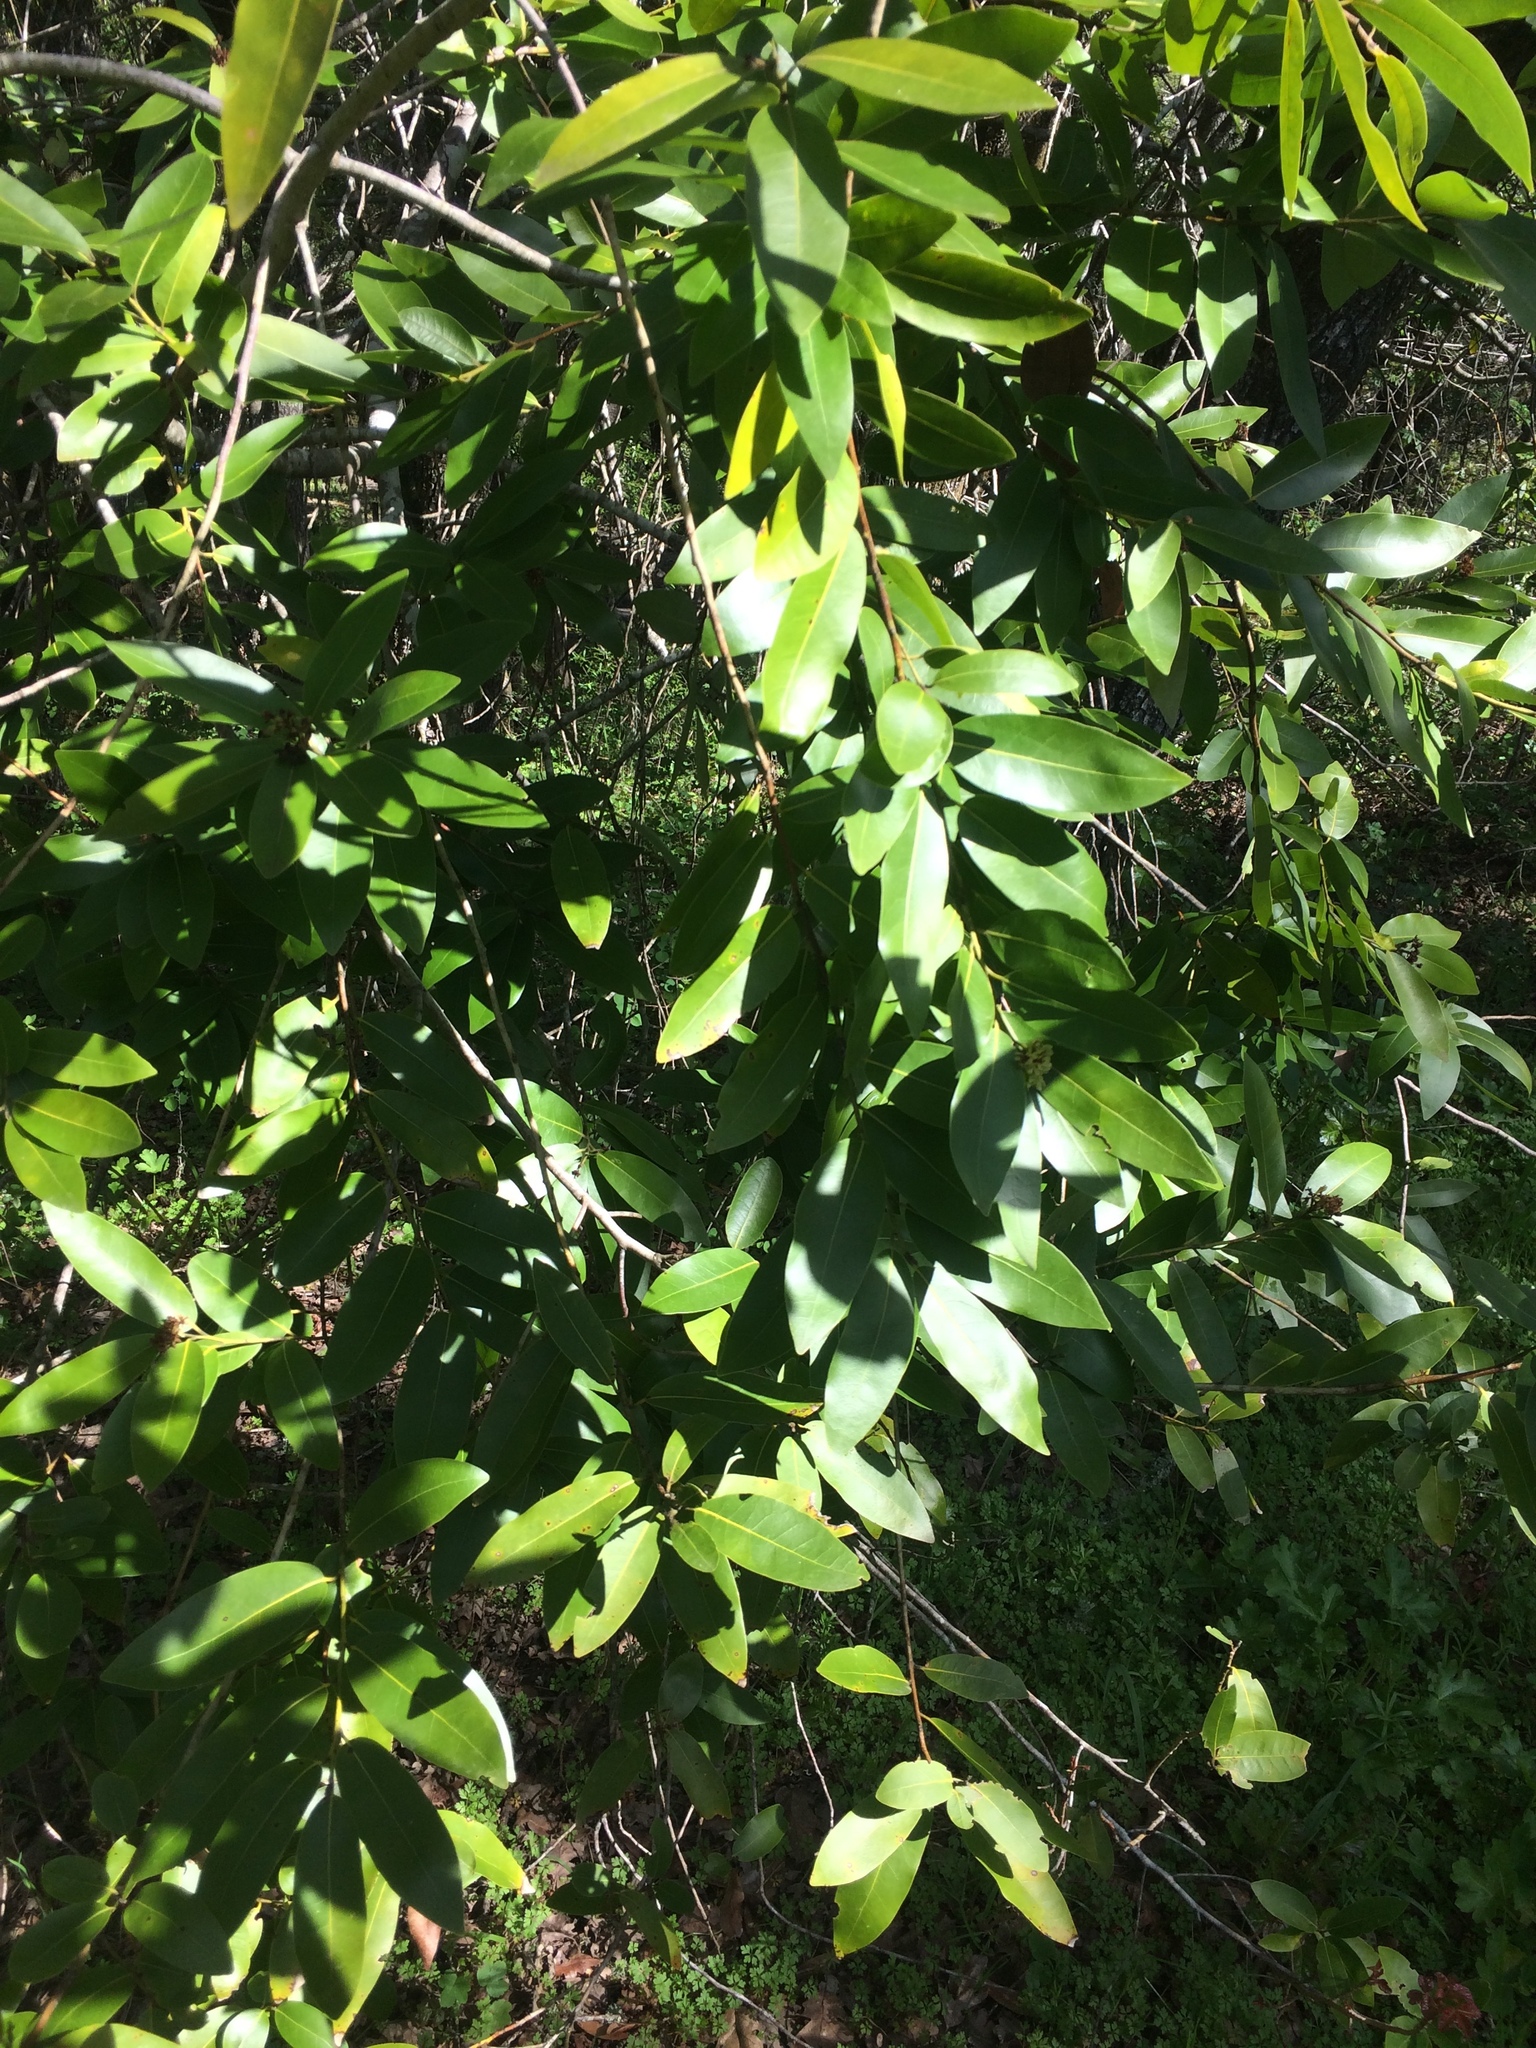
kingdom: Plantae
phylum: Tracheophyta
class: Magnoliopsida
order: Laurales
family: Lauraceae
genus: Umbellularia
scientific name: Umbellularia californica
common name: California bay
